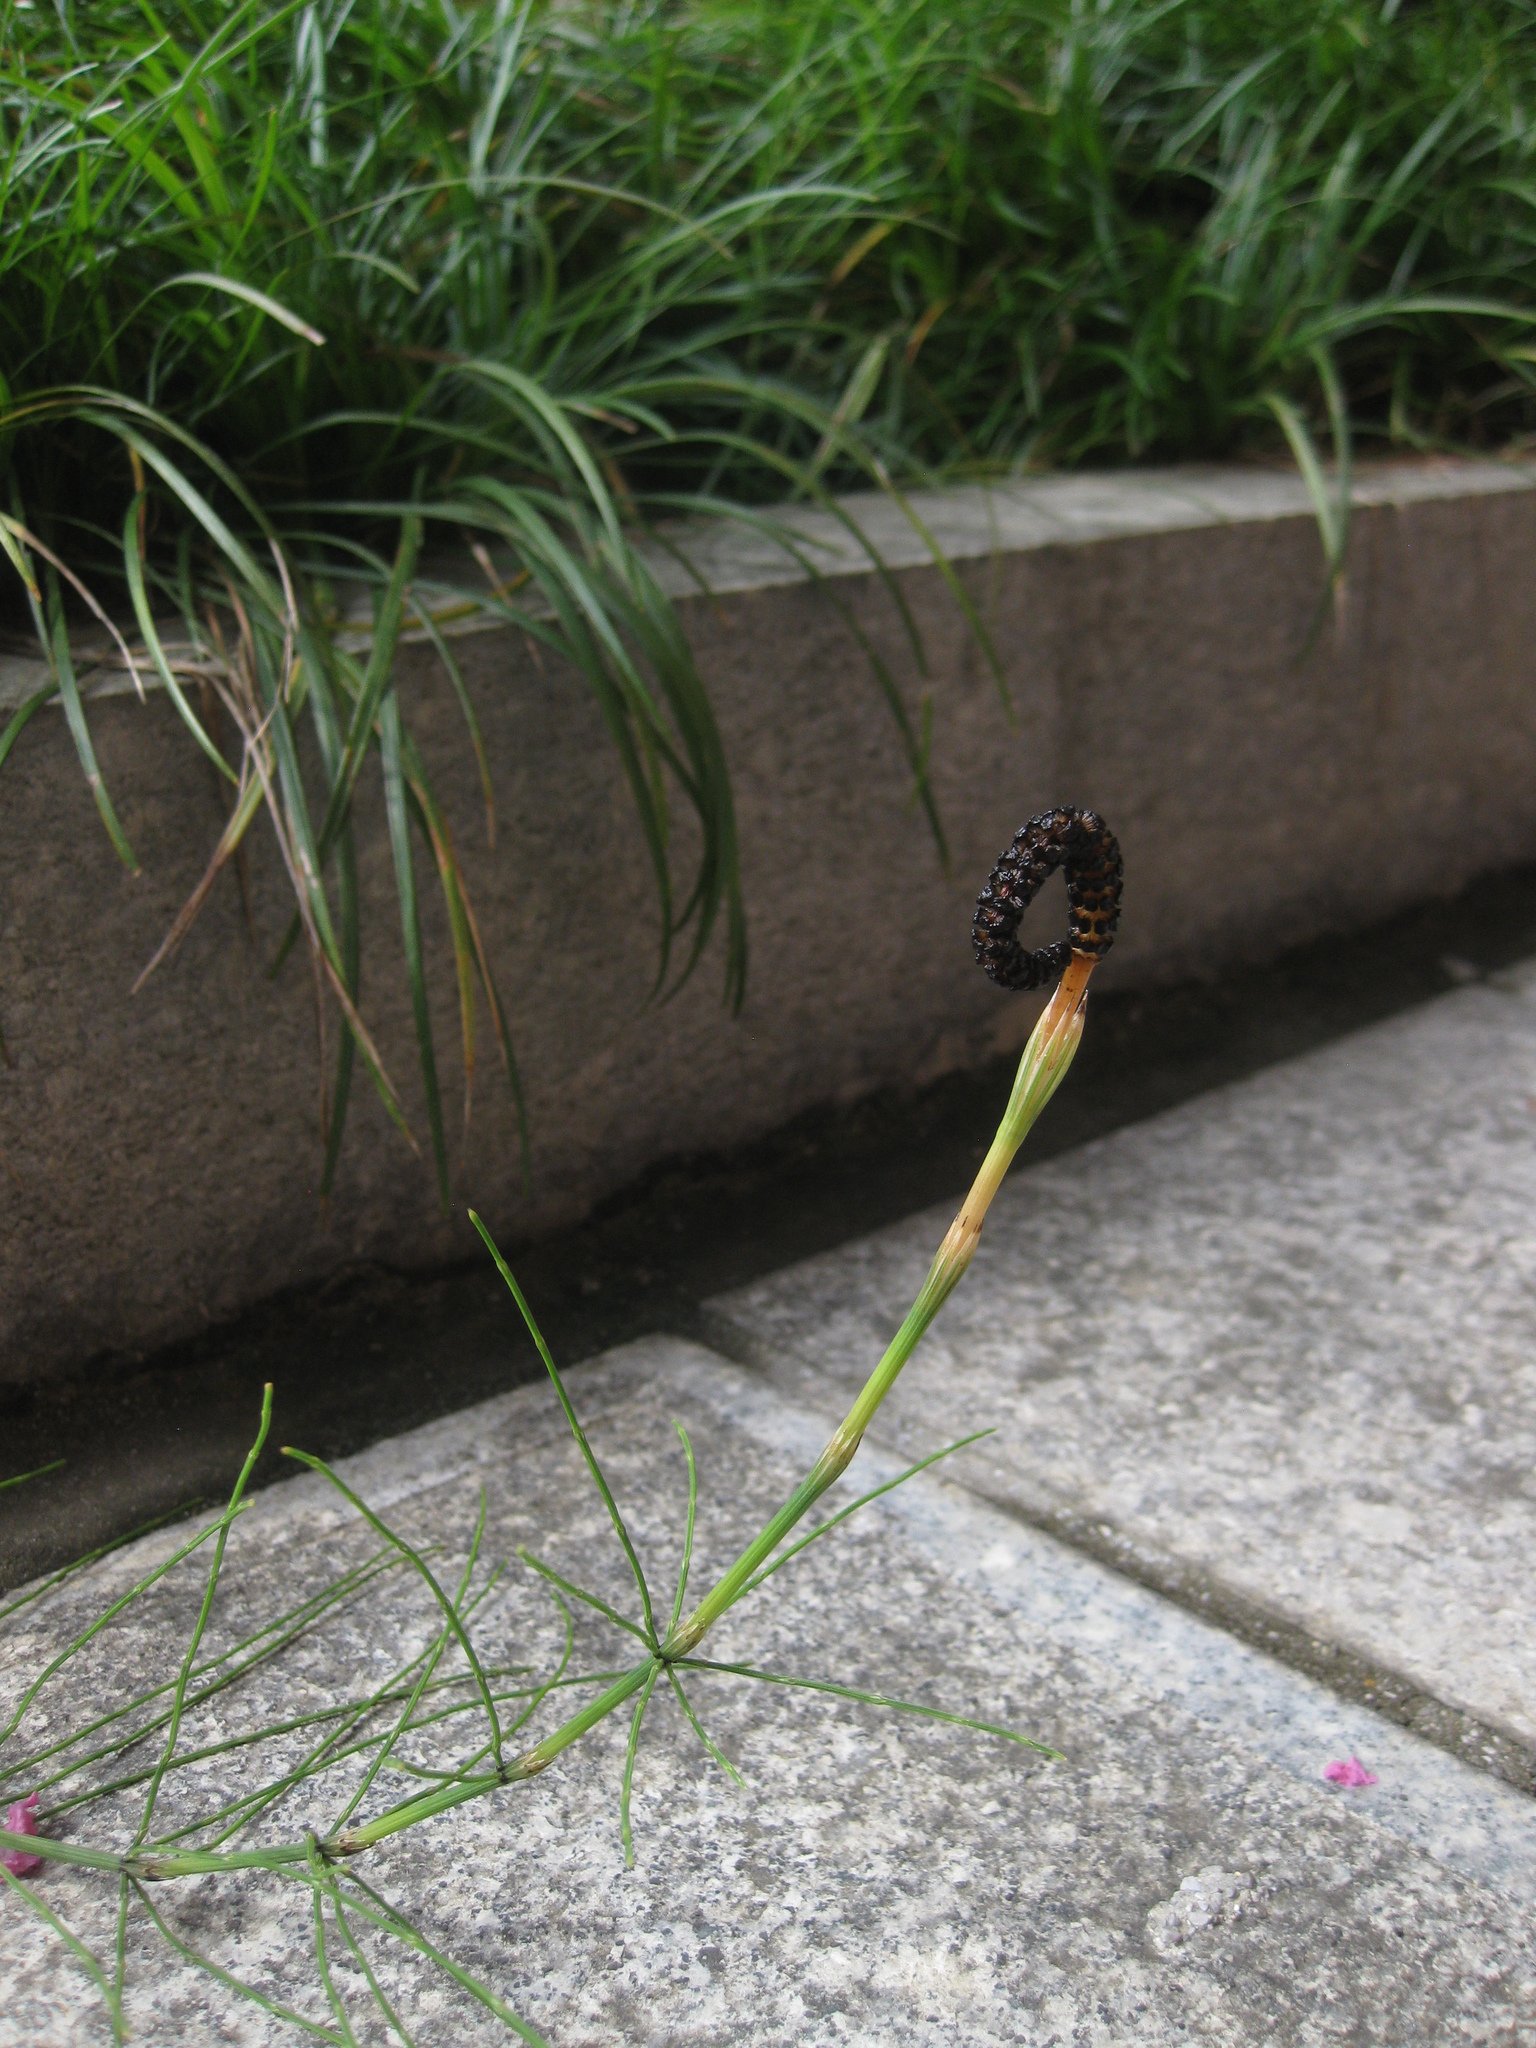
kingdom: Plantae
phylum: Tracheophyta
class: Polypodiopsida
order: Equisetales
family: Equisetaceae
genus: Equisetum
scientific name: Equisetum arvense
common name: Field horsetail
